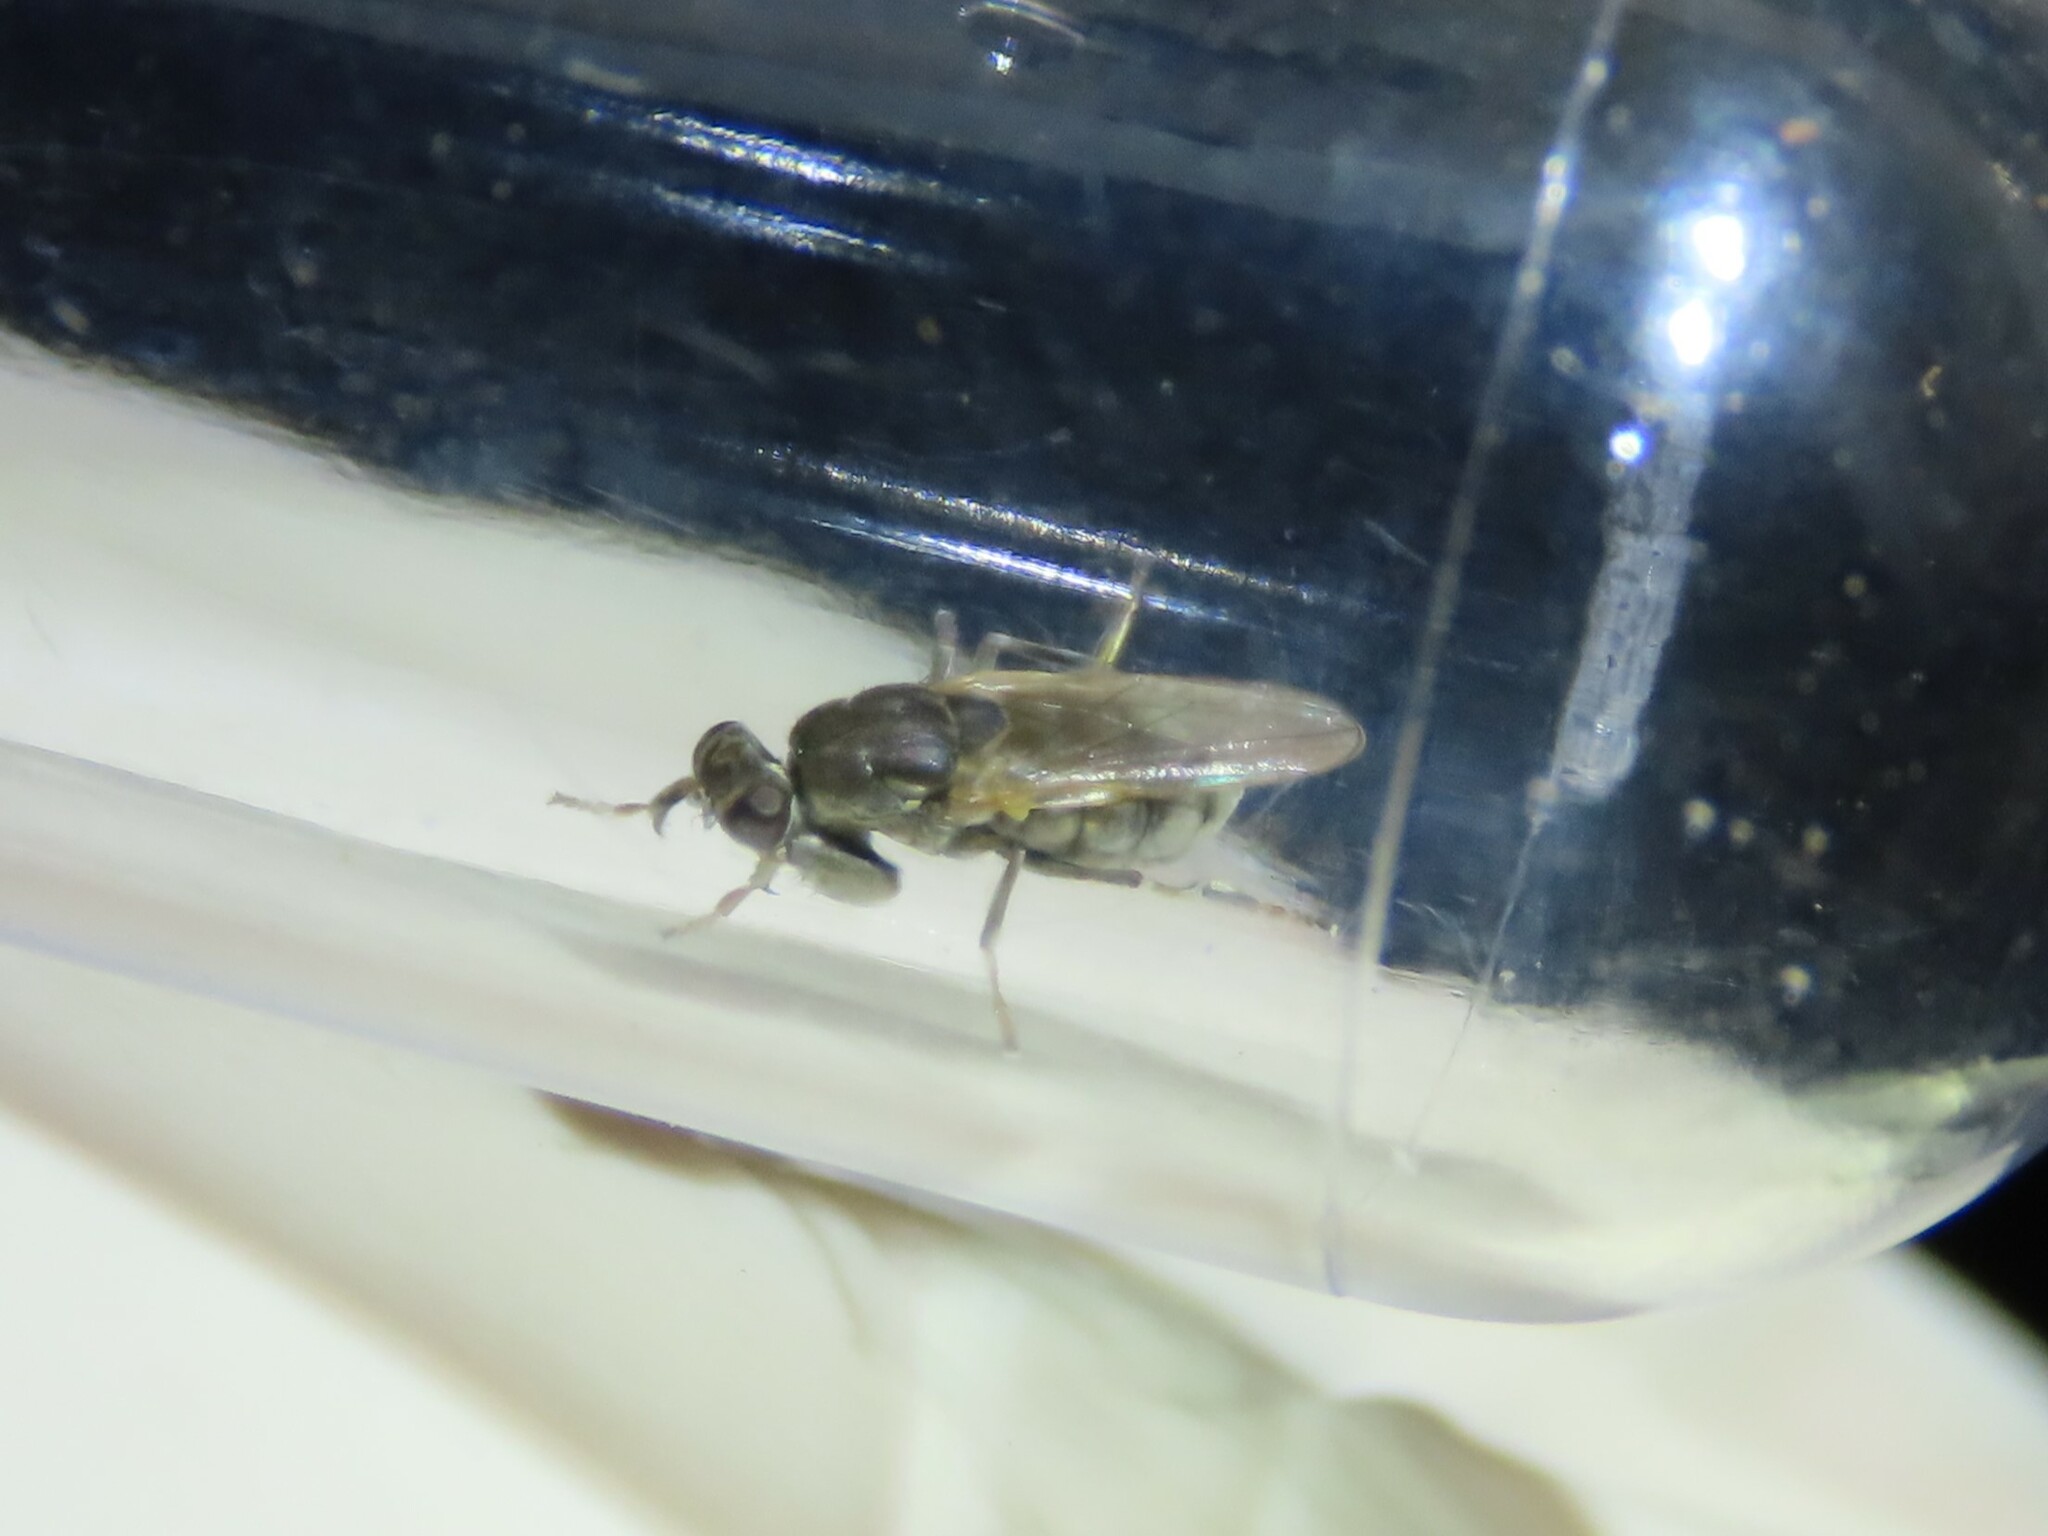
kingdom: Animalia
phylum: Arthropoda
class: Insecta
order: Diptera
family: Ephydridae
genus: Ochthera
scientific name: Ochthera schembrii
